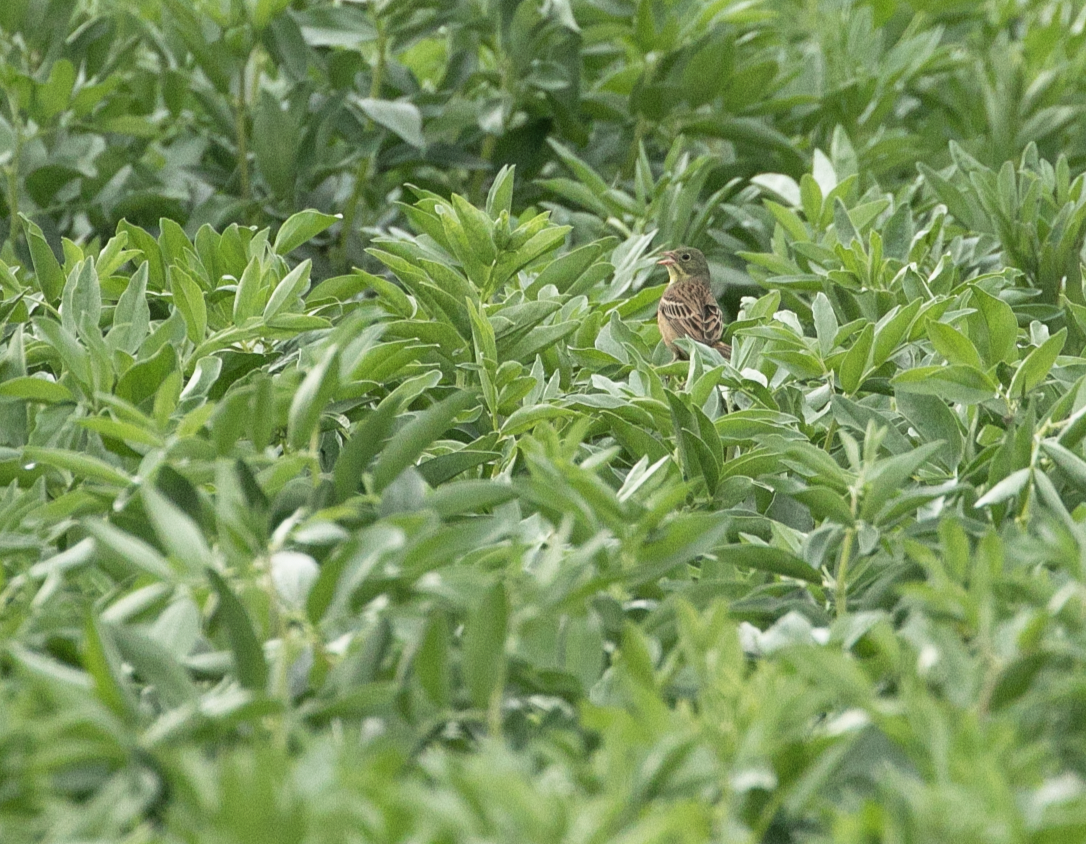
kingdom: Animalia
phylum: Chordata
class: Aves
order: Passeriformes
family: Emberizidae
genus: Emberiza
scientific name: Emberiza hortulana
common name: Ortolan bunting
